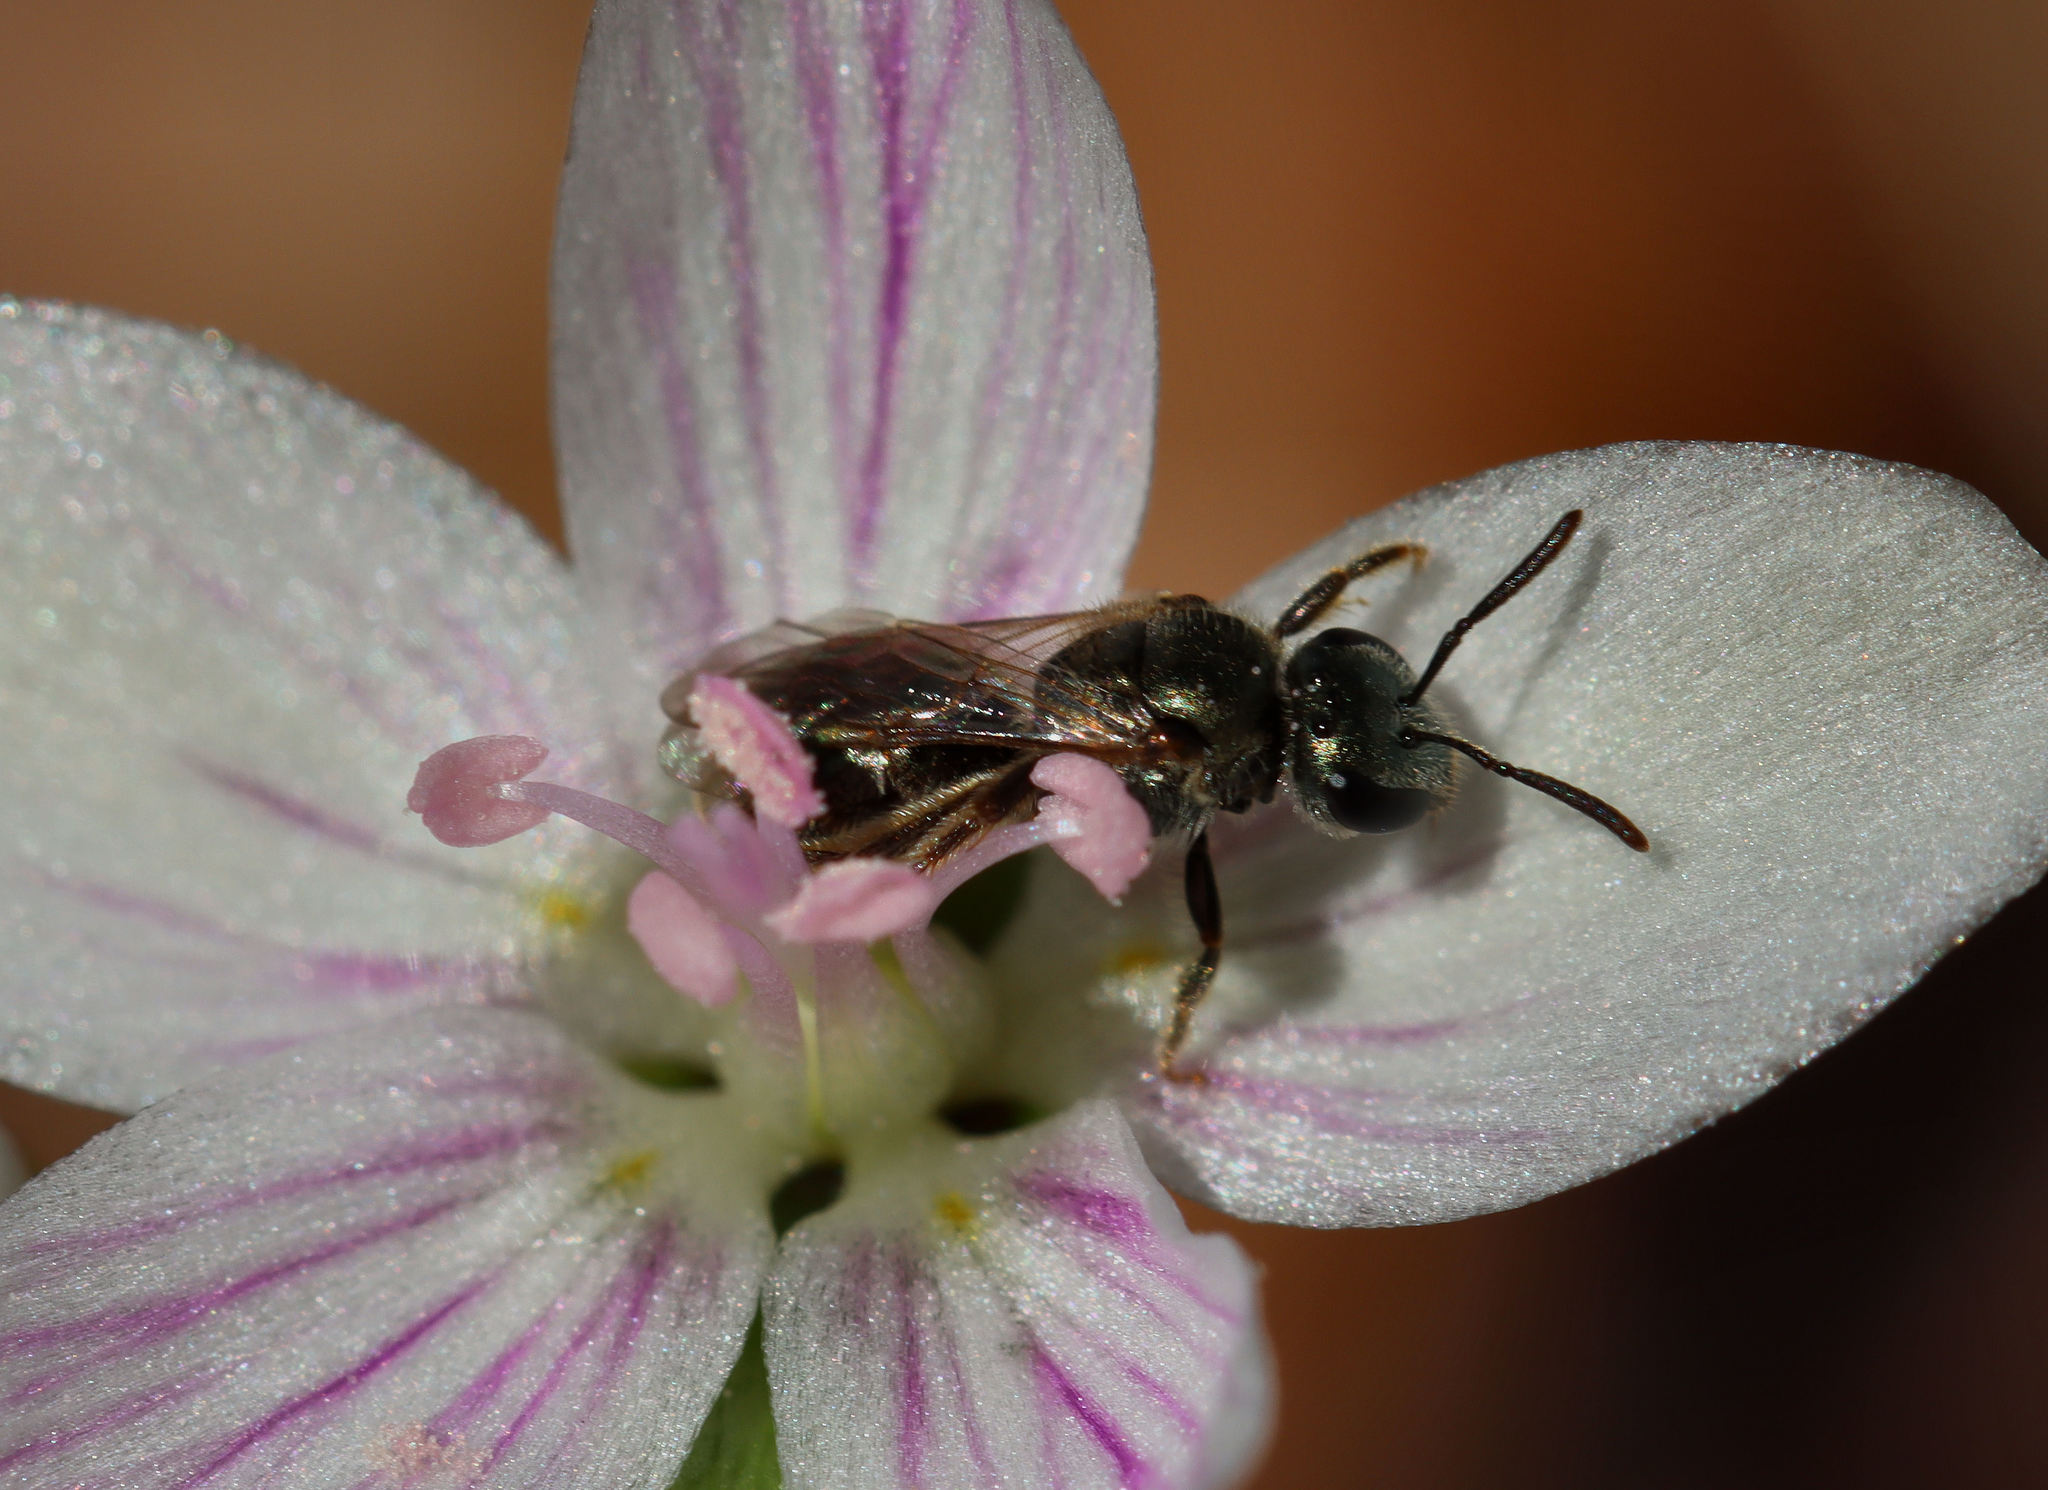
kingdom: Animalia
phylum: Arthropoda
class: Insecta
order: Hymenoptera
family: Halictidae
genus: Dialictus
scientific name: Dialictus
